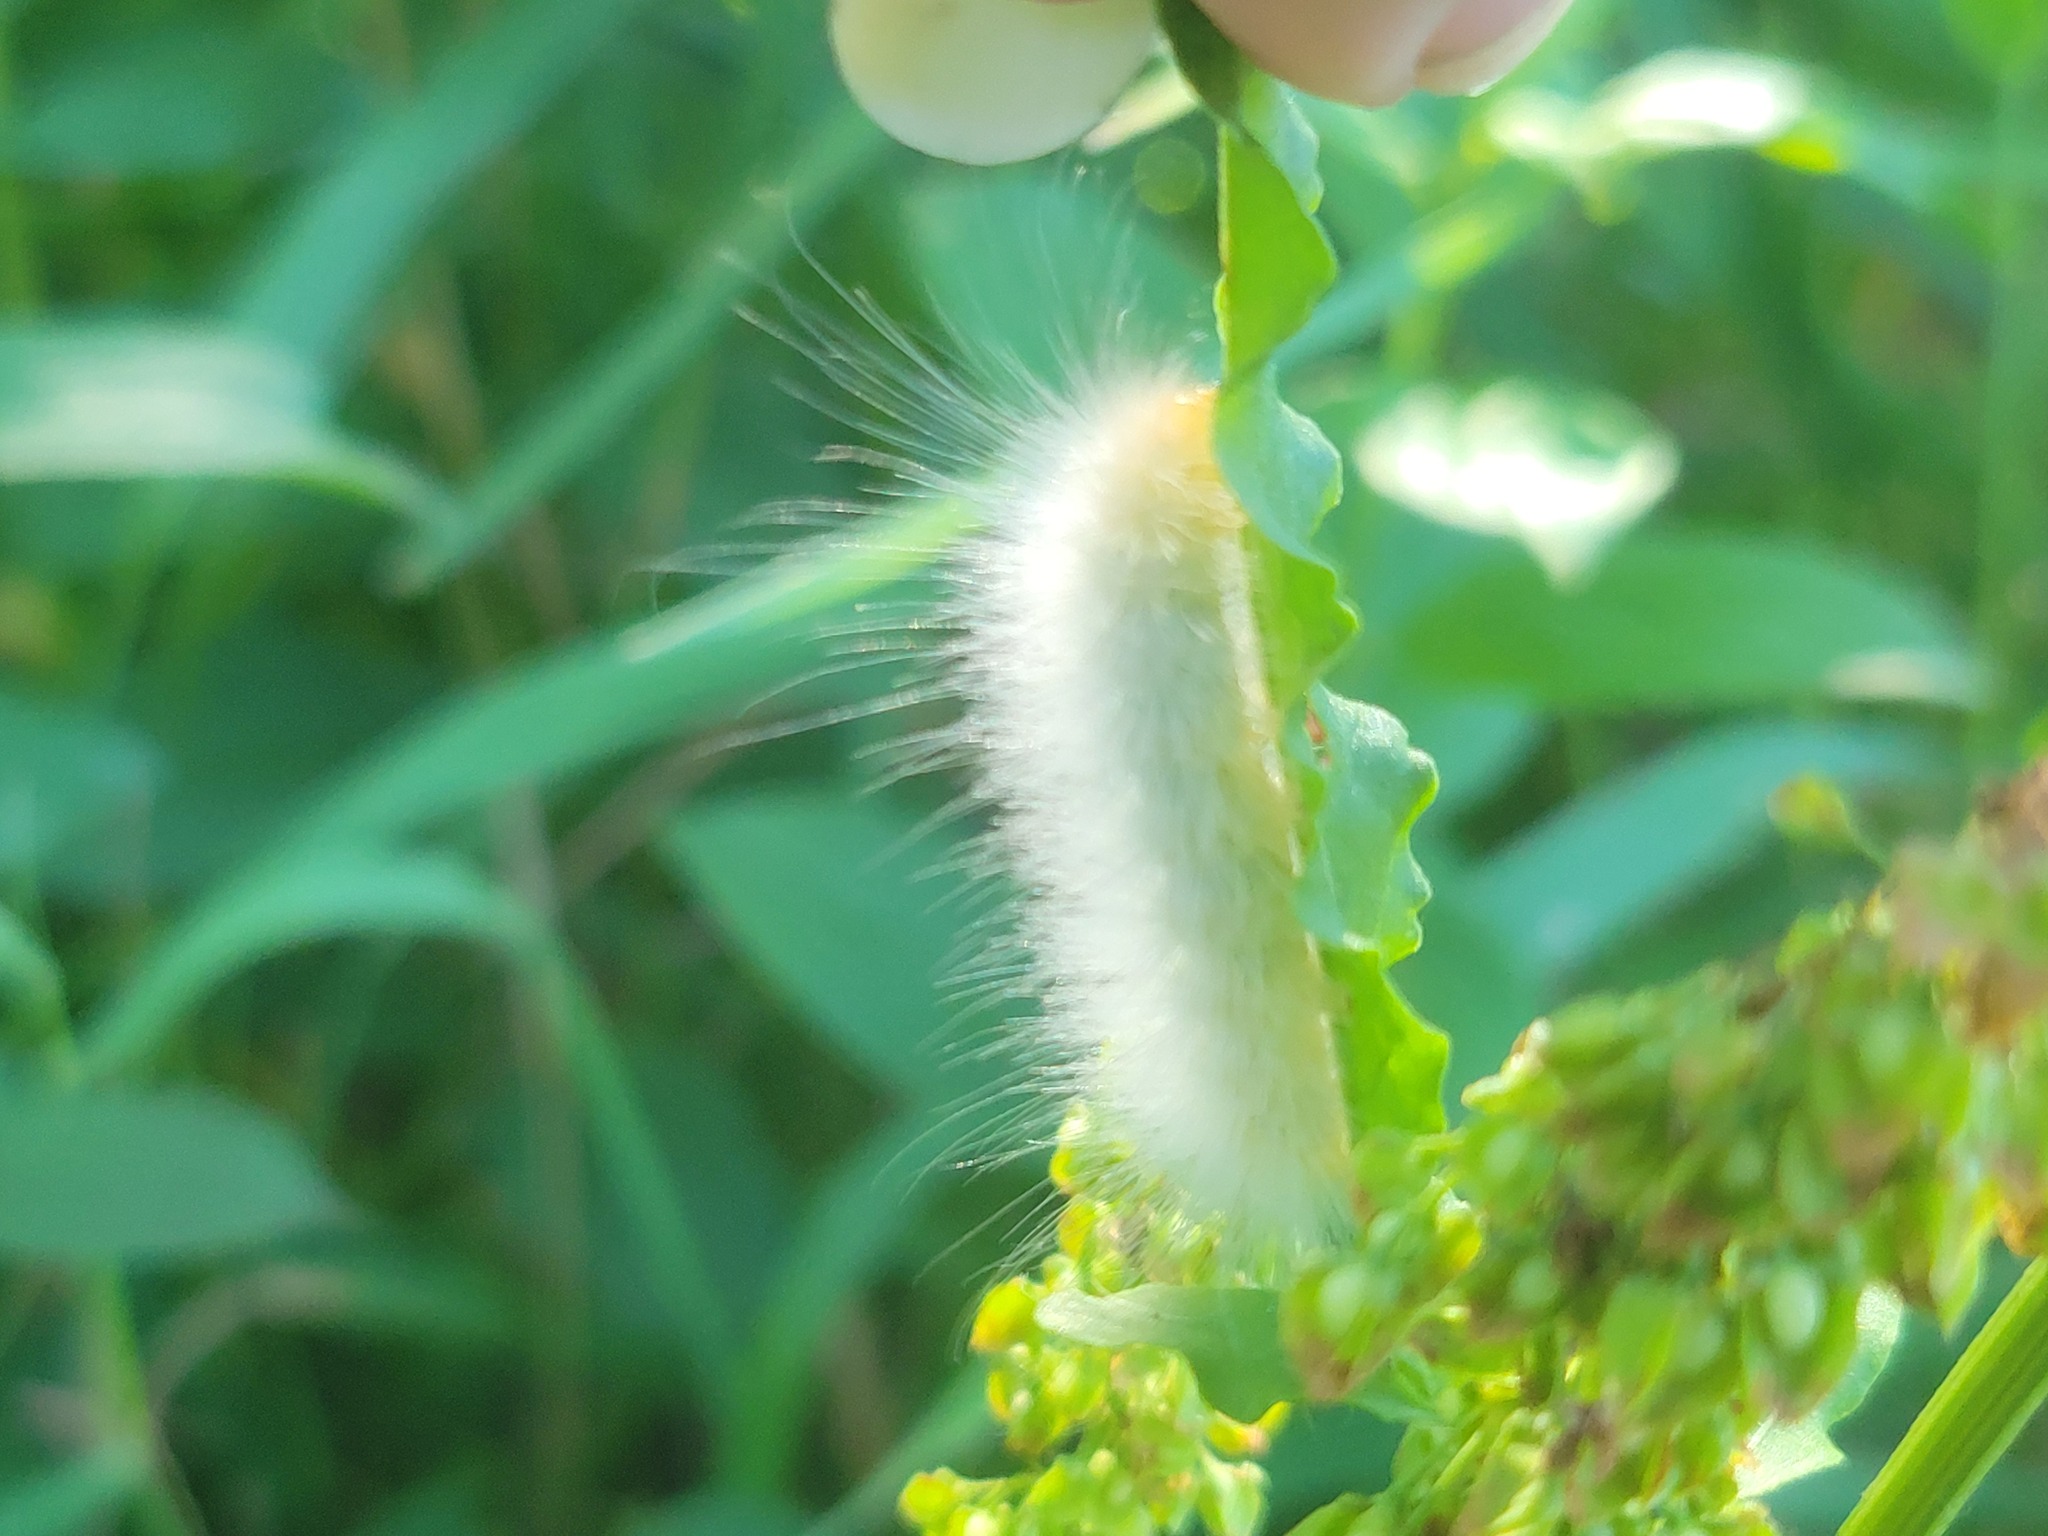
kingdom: Animalia
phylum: Arthropoda
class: Insecta
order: Lepidoptera
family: Erebidae
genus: Spilosoma
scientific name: Spilosoma virginica
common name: Virginia tiger moth
